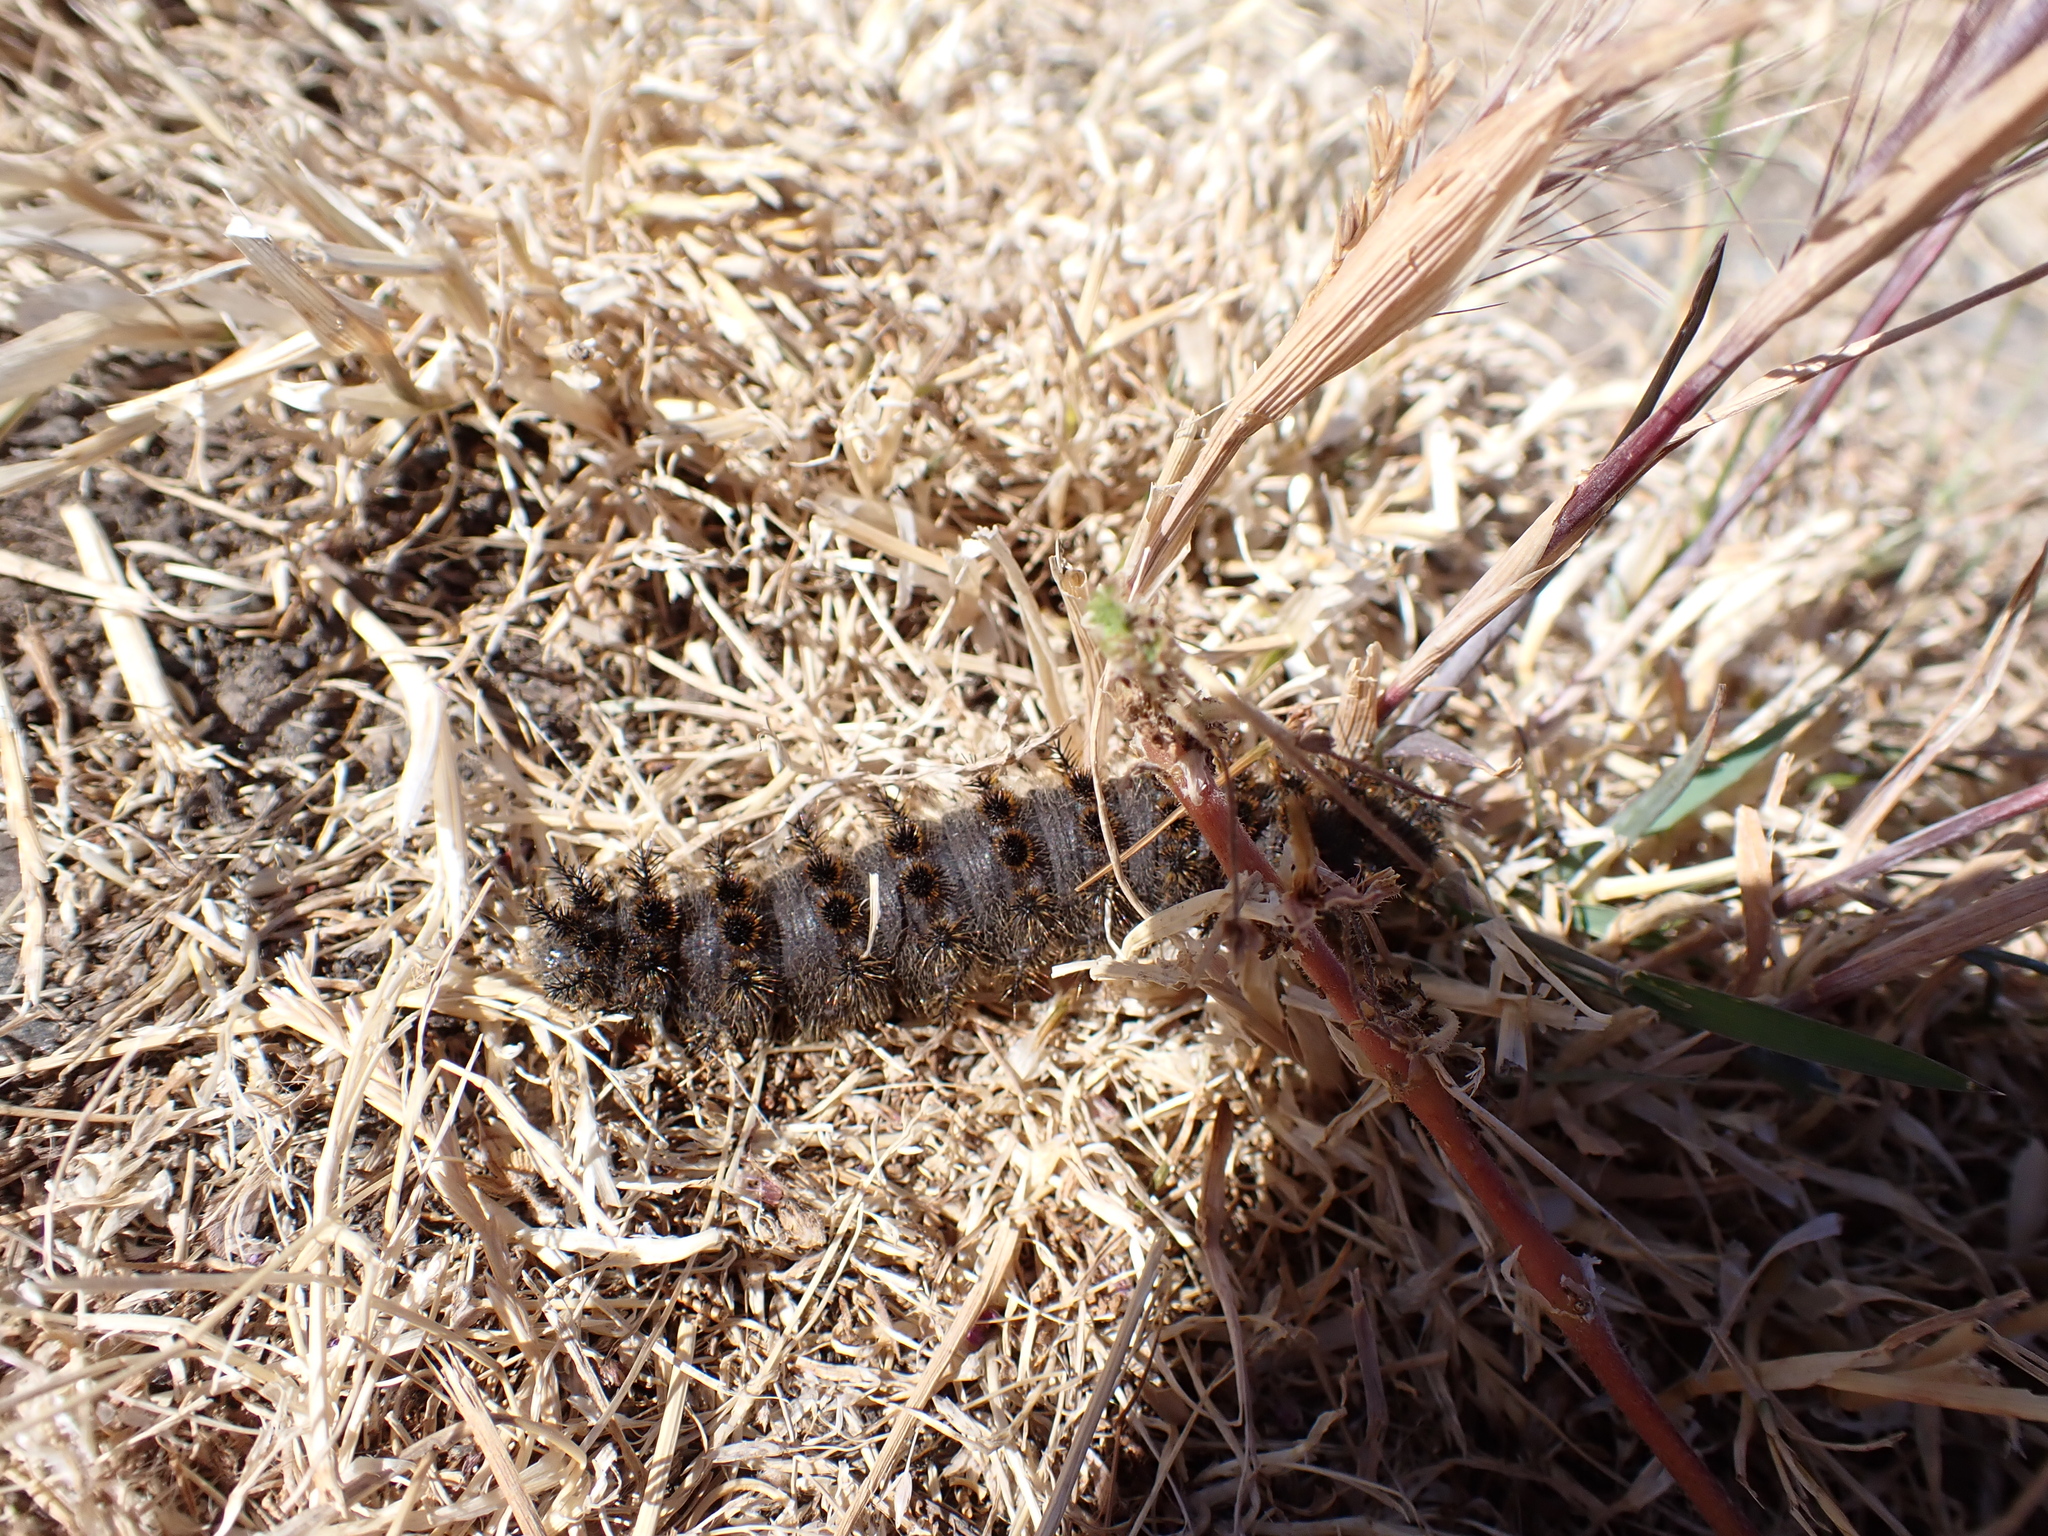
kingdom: Animalia
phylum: Arthropoda
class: Insecta
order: Lepidoptera
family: Saturniidae
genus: Hemileuca
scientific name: Hemileuca eglanterina
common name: Western sheepmoth
